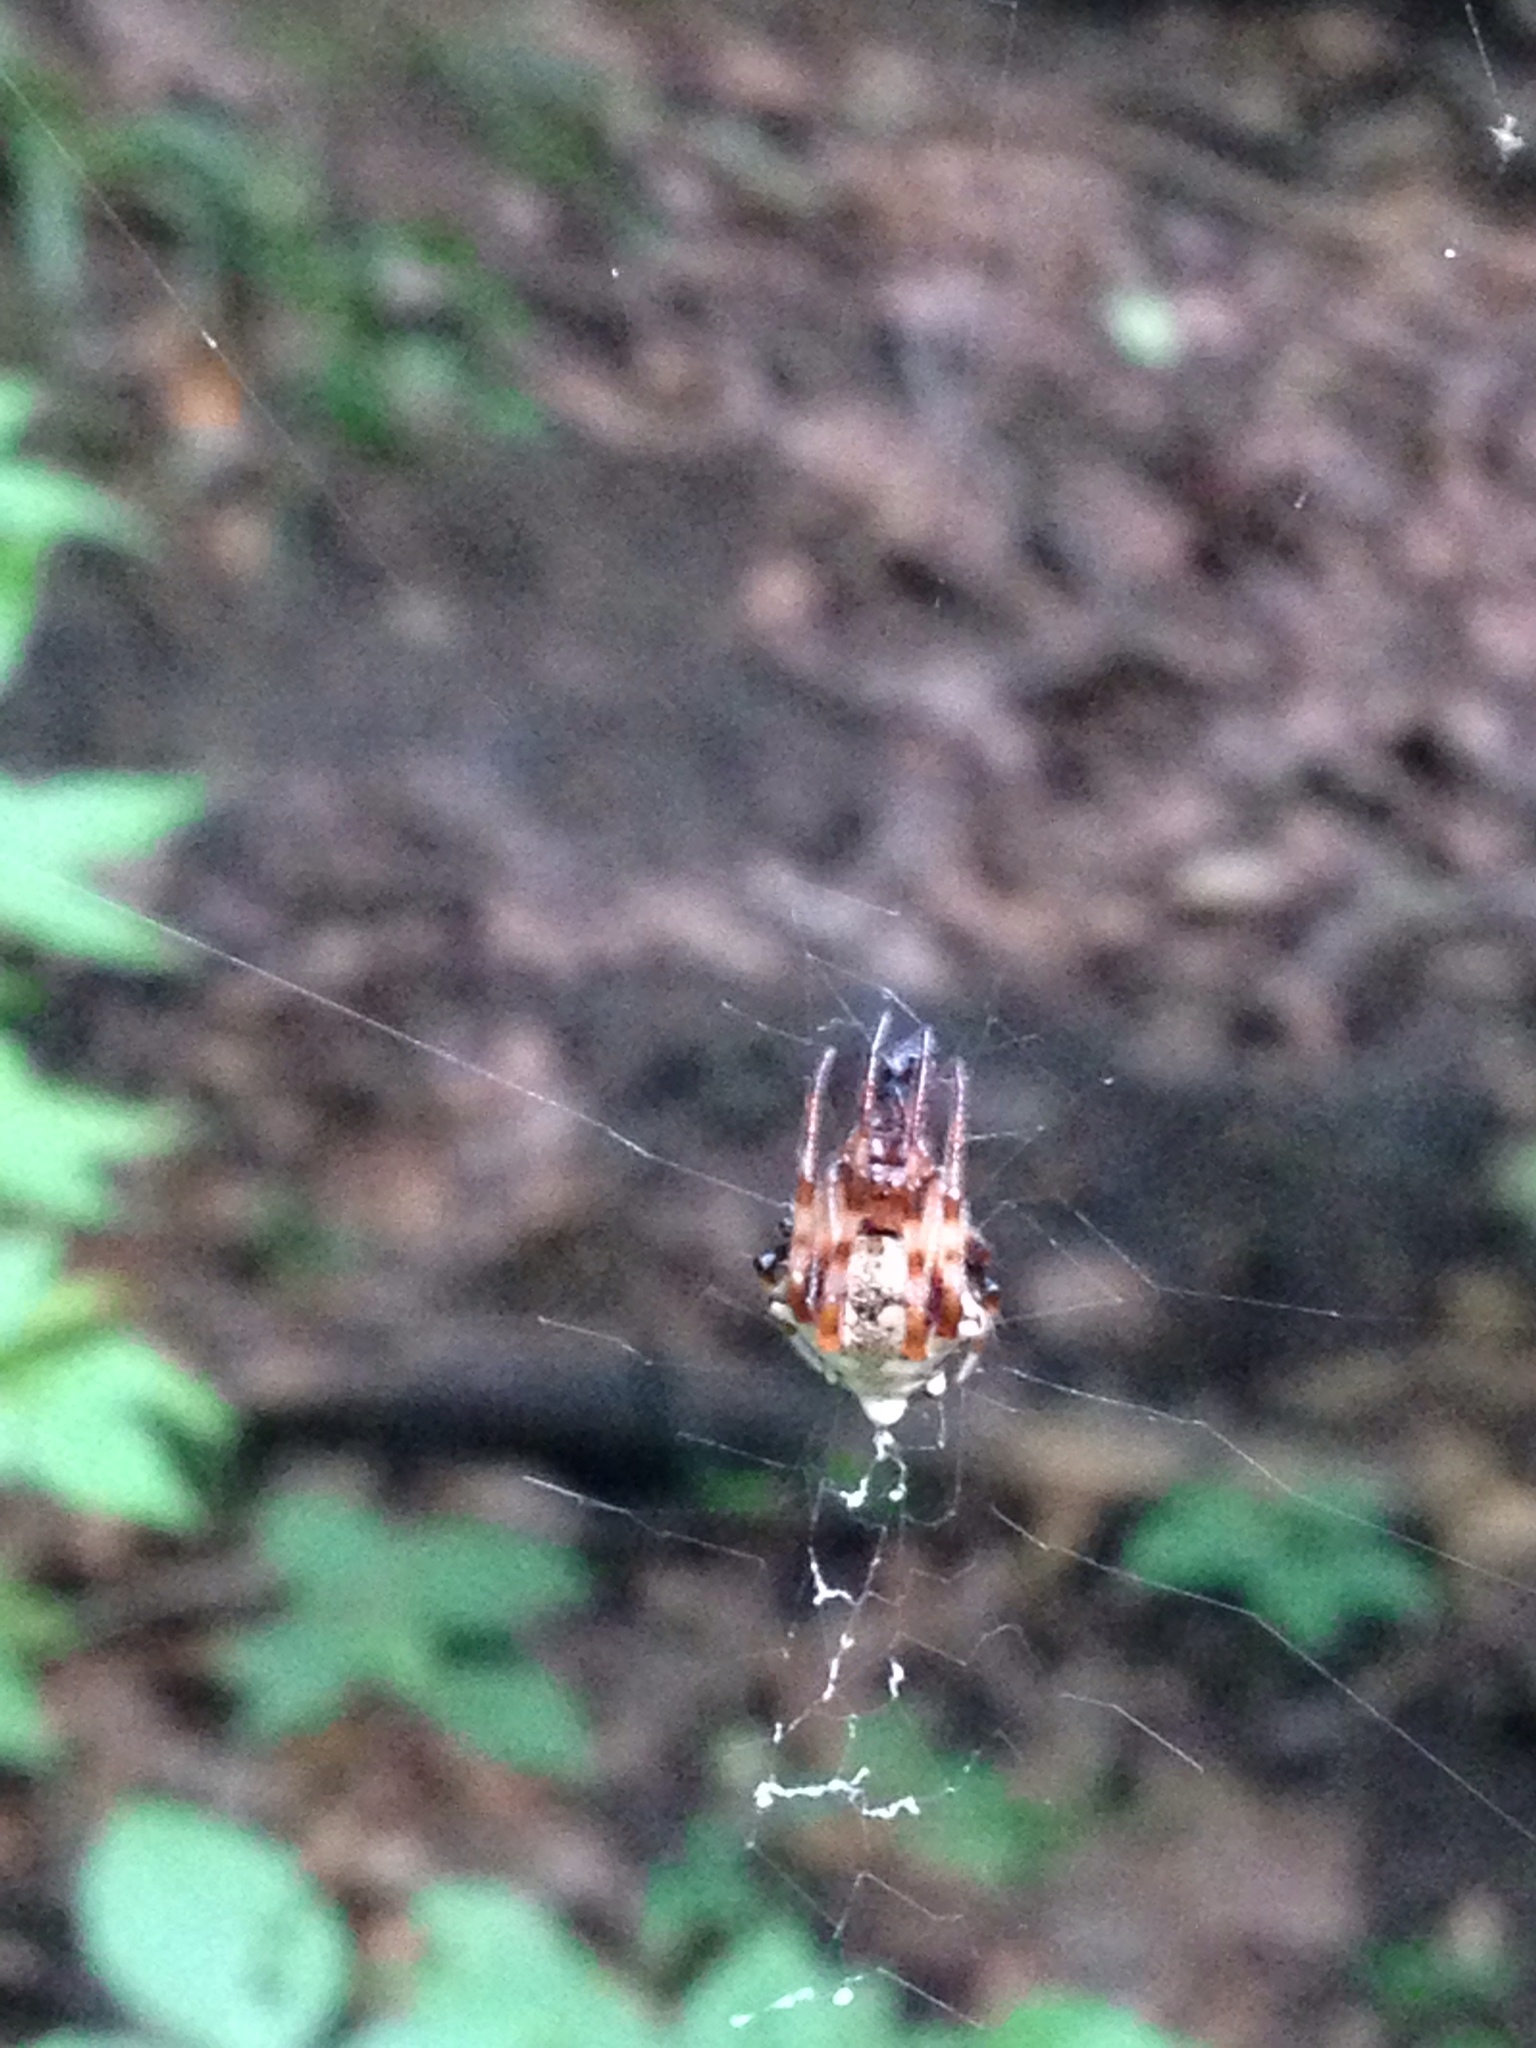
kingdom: Animalia
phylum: Arthropoda
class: Arachnida
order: Araneae
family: Araneidae
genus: Verrucosa
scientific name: Verrucosa arenata
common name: Orb weavers
